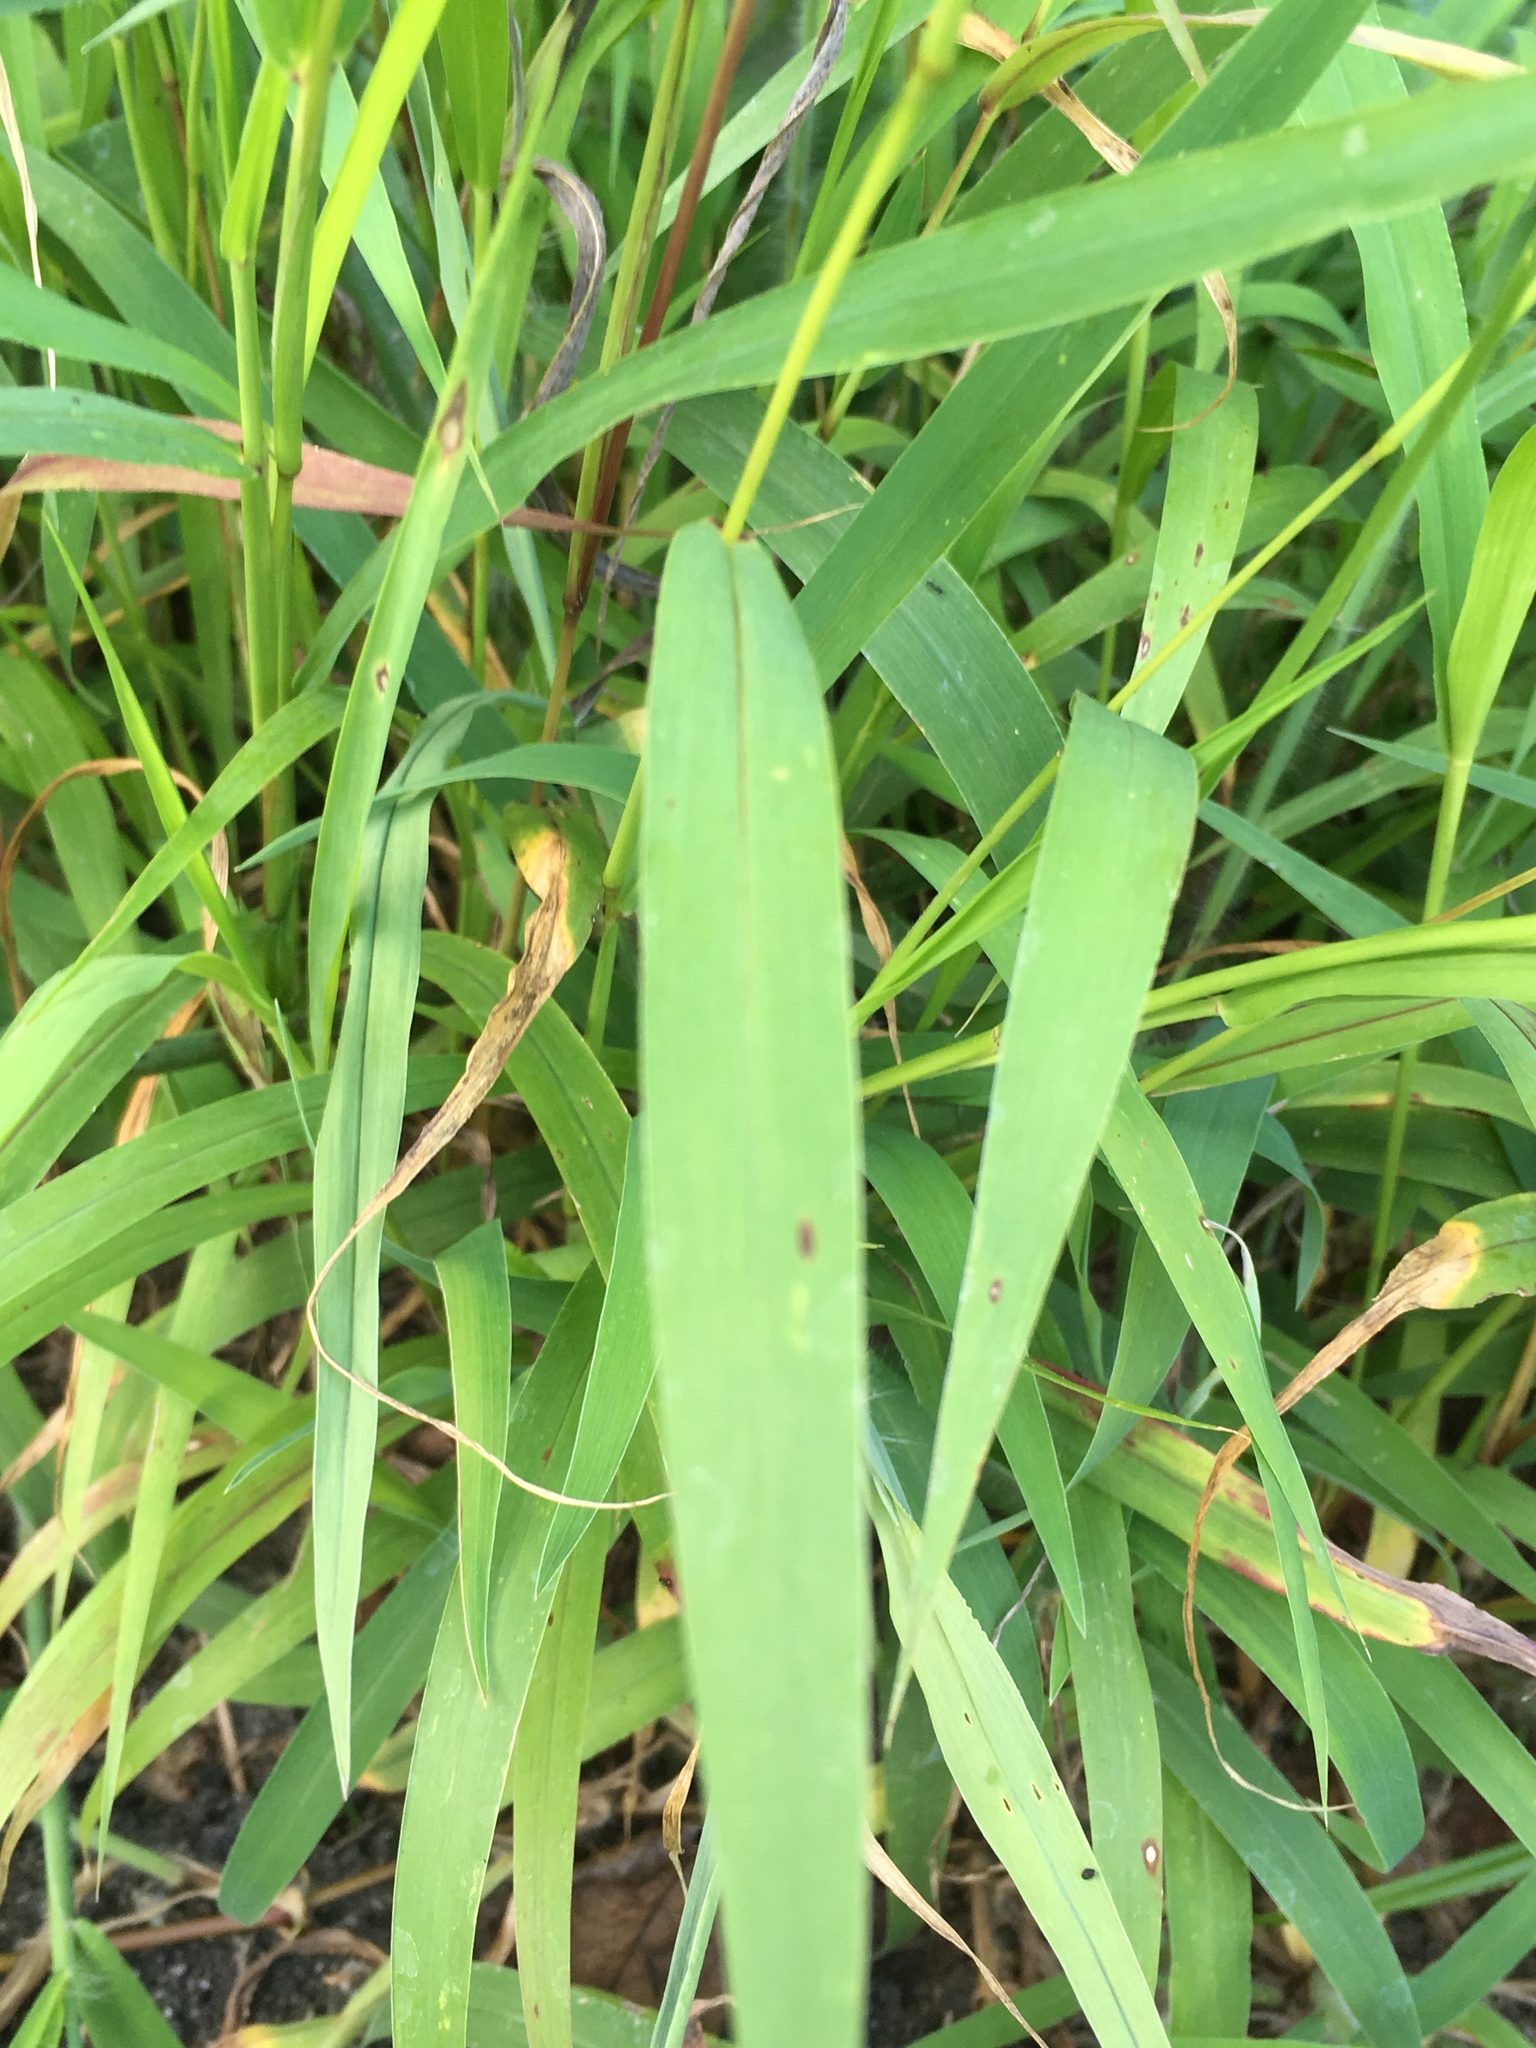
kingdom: Plantae
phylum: Tracheophyta
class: Liliopsida
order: Poales
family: Poaceae
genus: Setaria
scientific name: Setaria faberi
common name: Nodding bristle-grass
